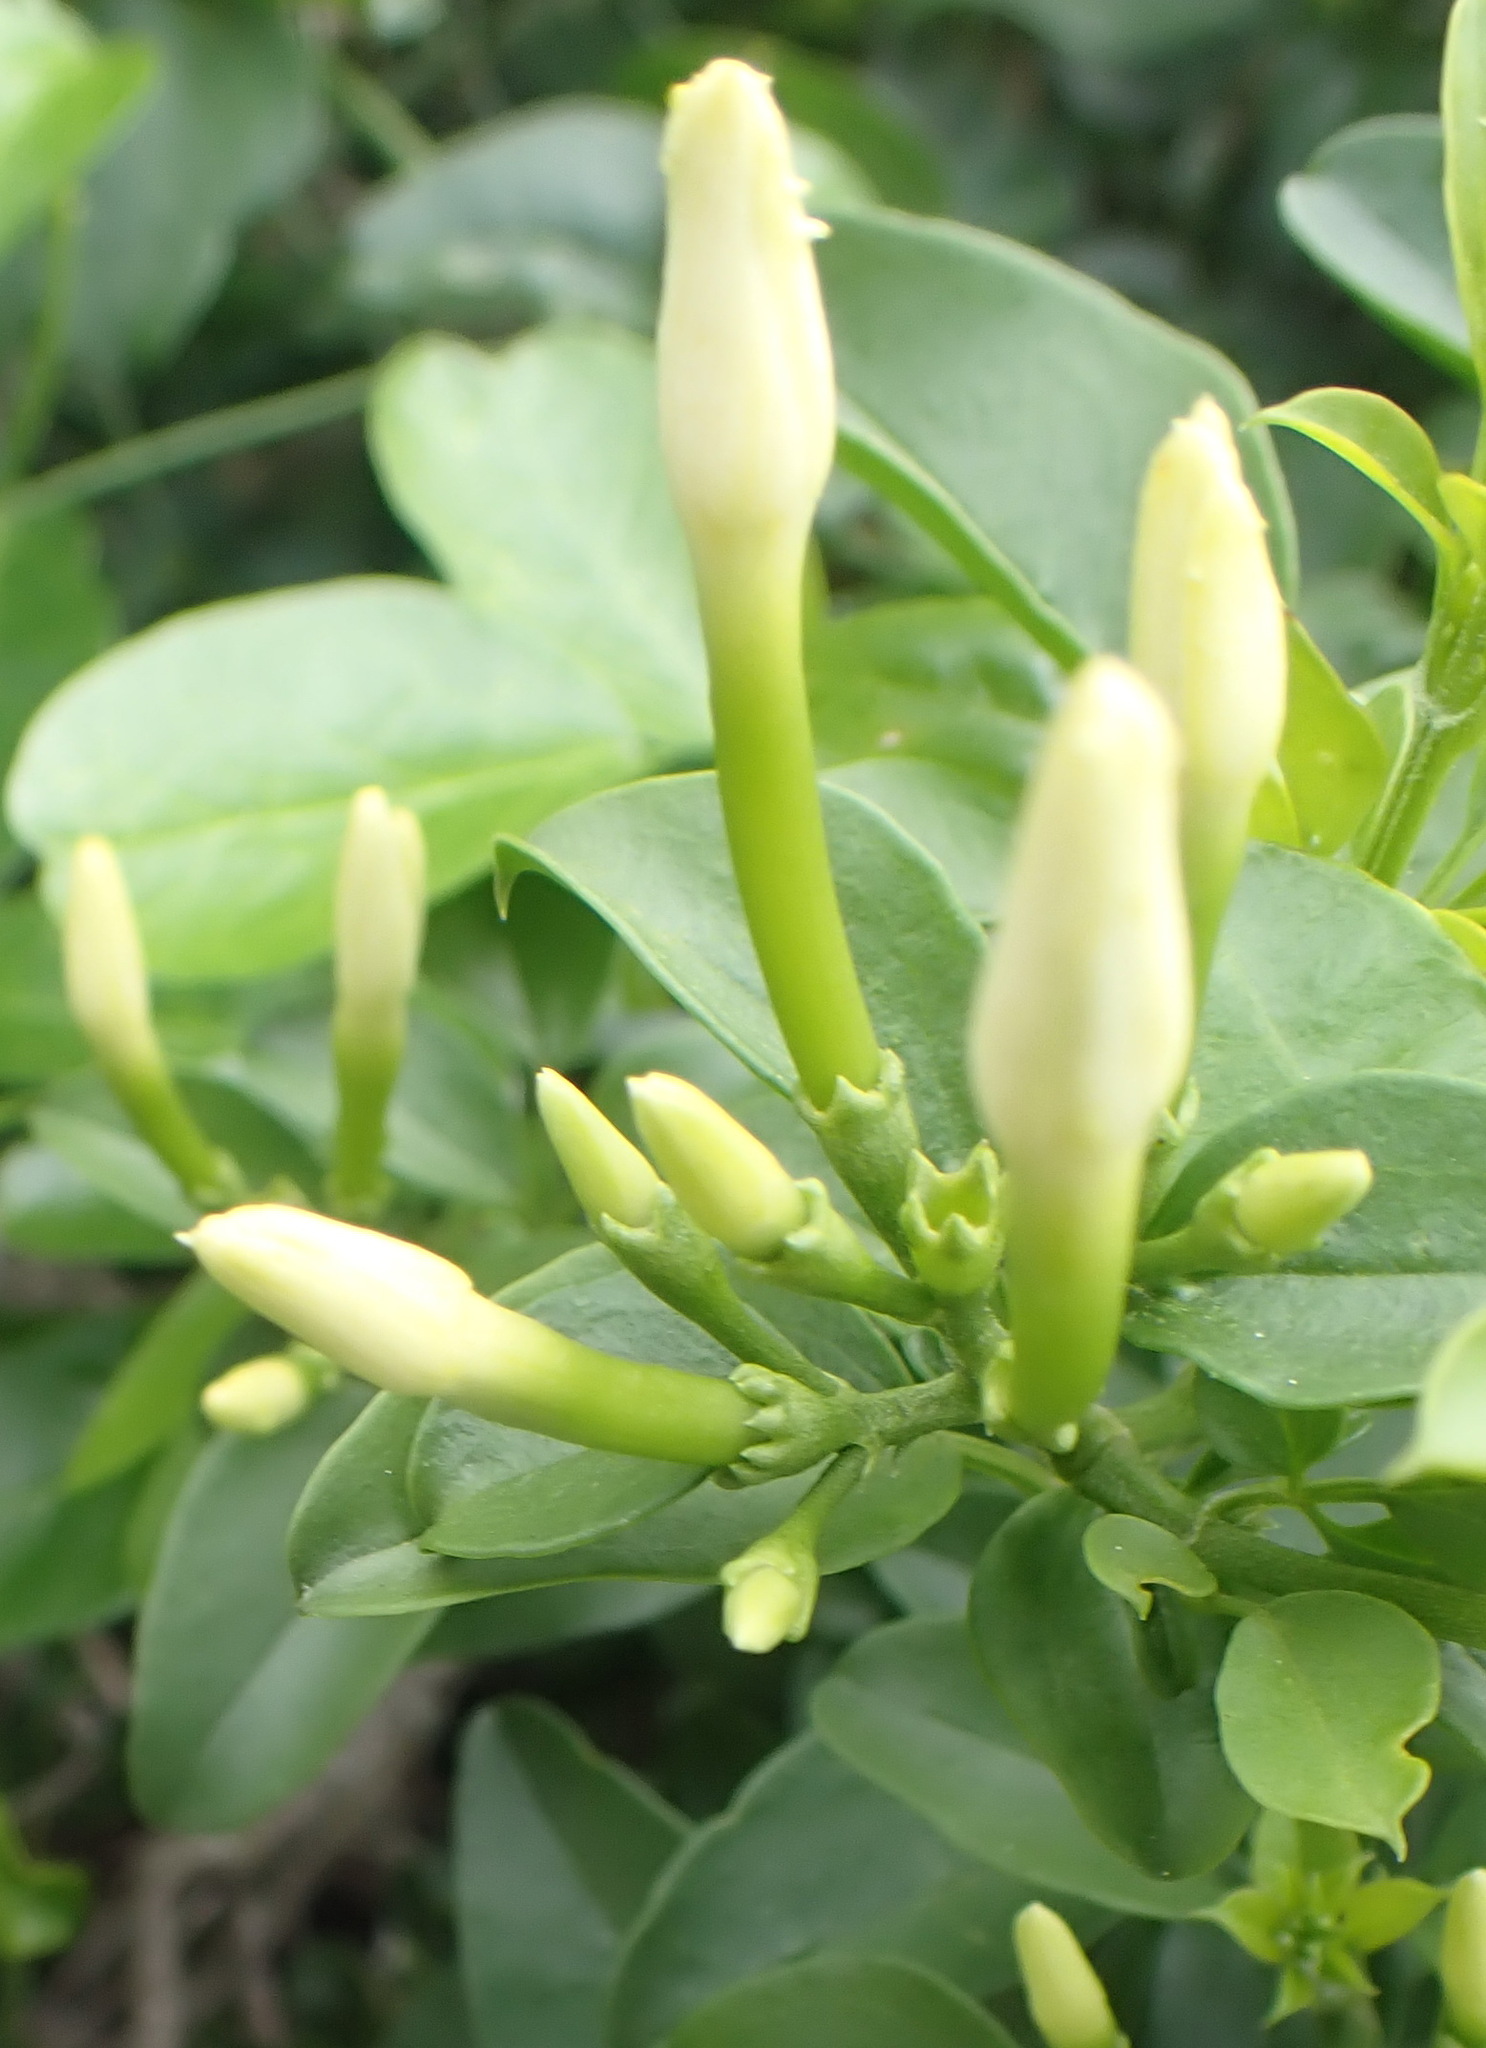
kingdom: Plantae
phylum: Tracheophyta
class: Magnoliopsida
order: Lamiales
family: Oleaceae
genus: Jasminum
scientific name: Jasminum angulare
